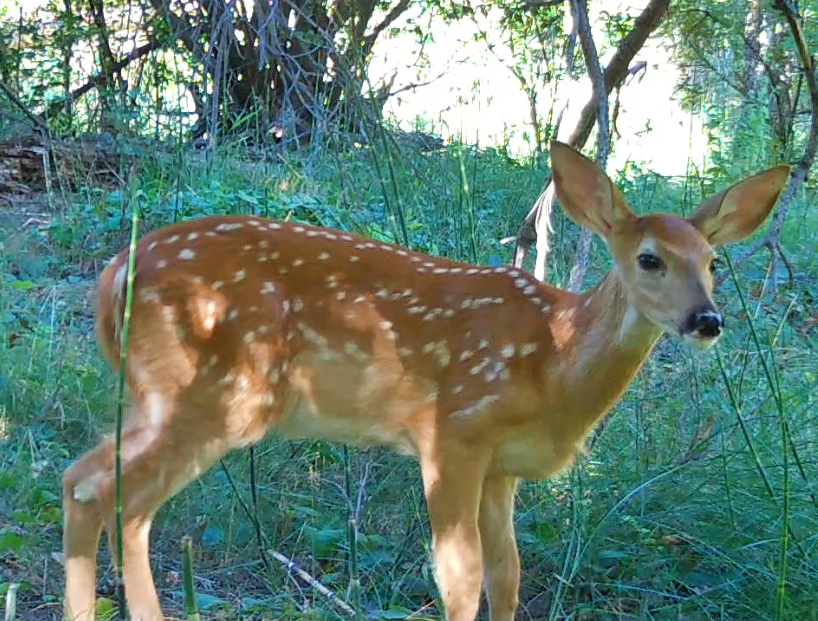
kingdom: Animalia
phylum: Chordata
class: Mammalia
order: Artiodactyla
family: Cervidae
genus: Odocoileus
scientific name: Odocoileus virginianus
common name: White-tailed deer
